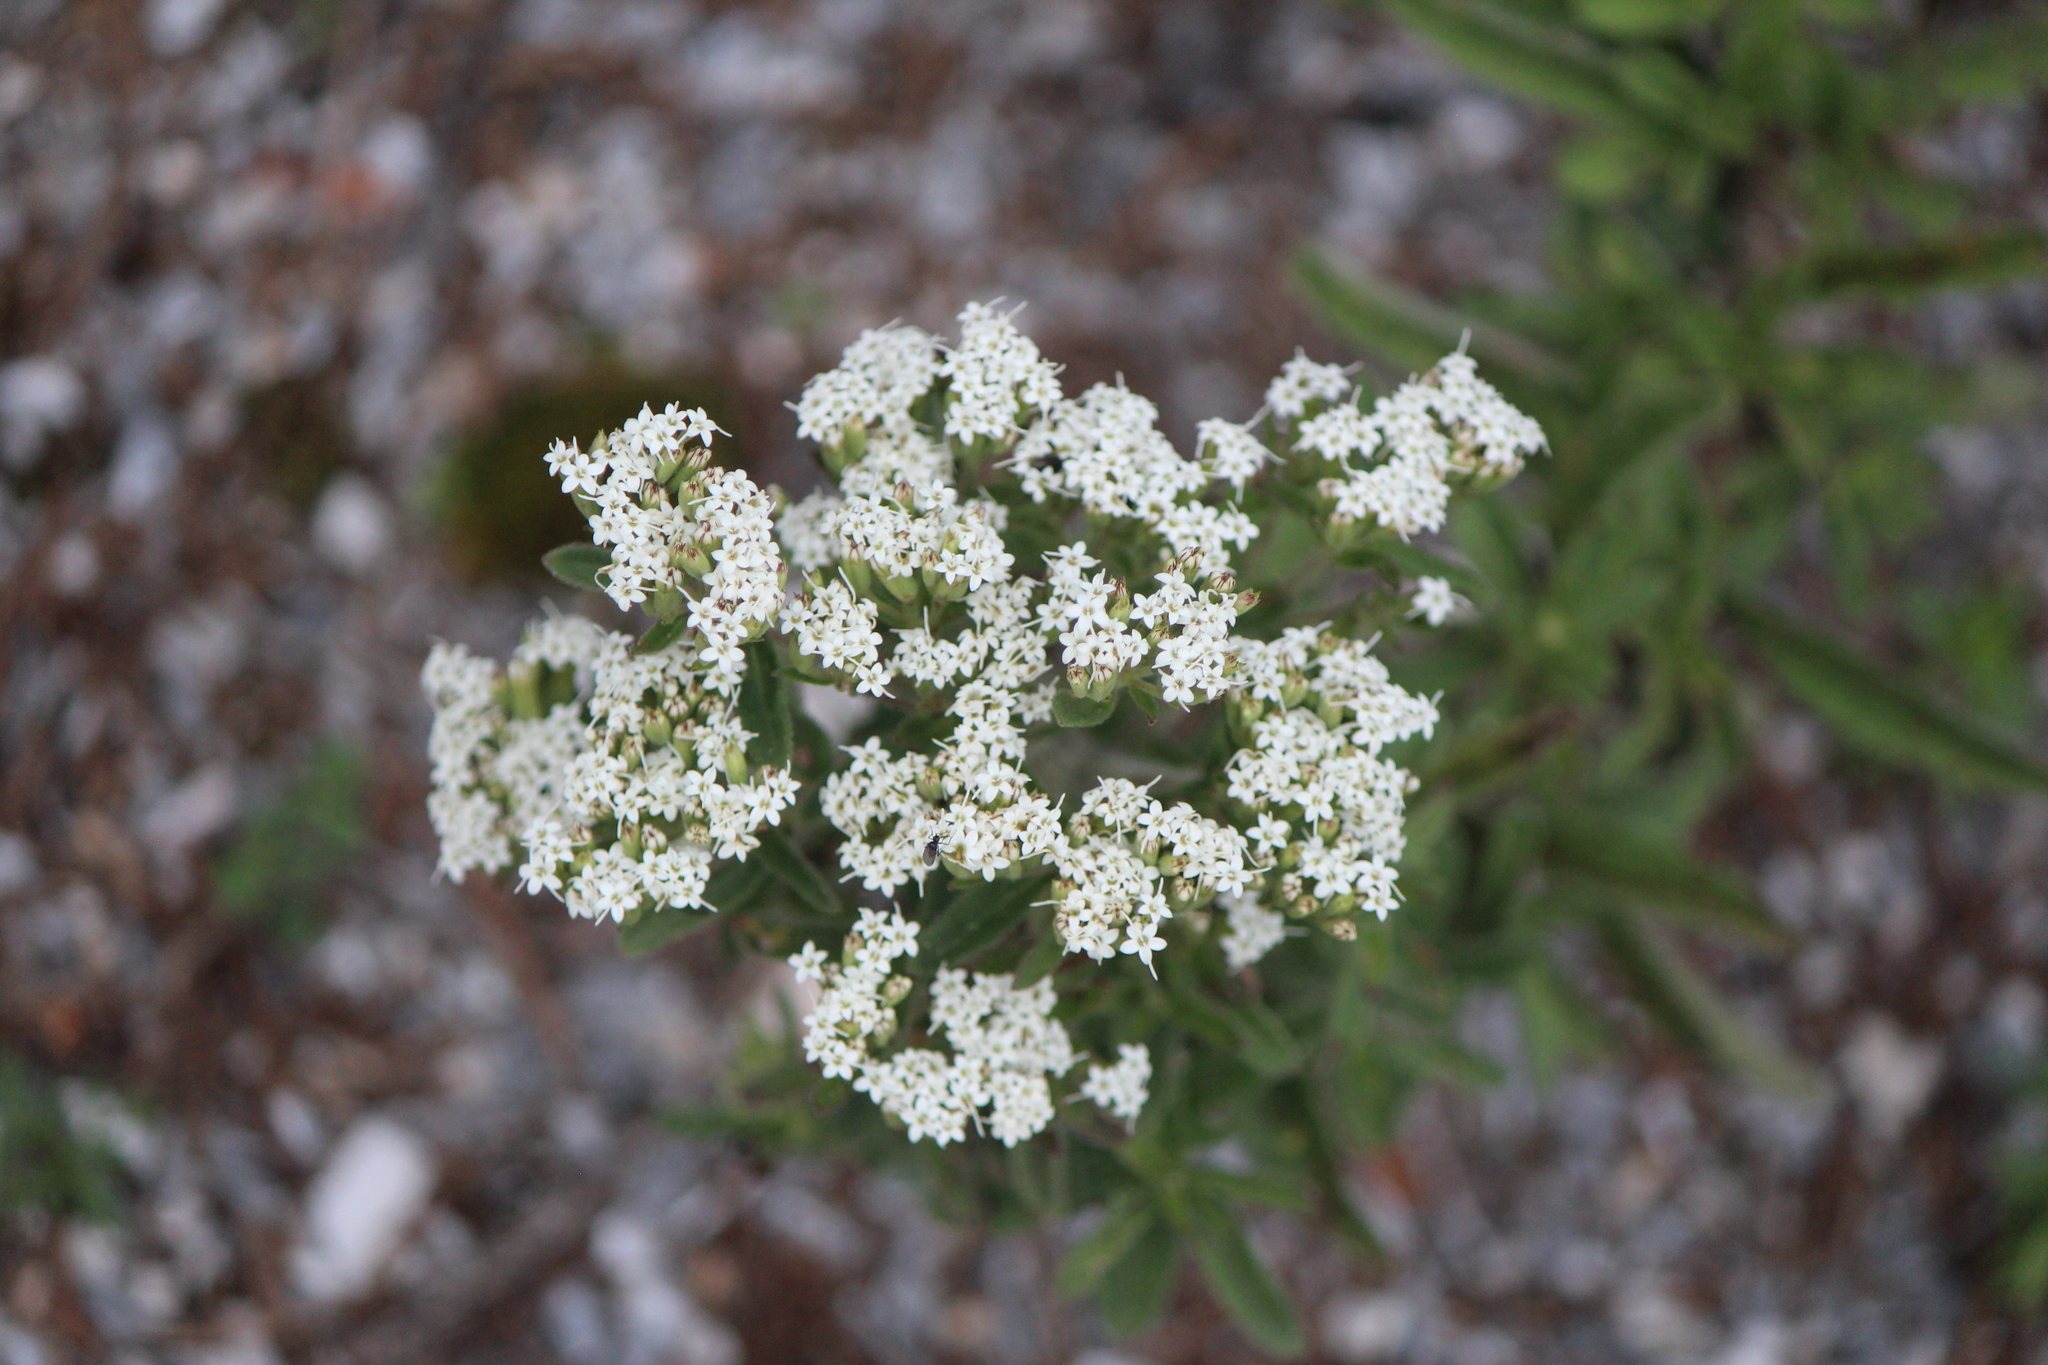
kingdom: Plantae
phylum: Tracheophyta
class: Magnoliopsida
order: Asterales
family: Asteraceae
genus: Stevia
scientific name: Stevia serrata
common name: Sawtooth candyleaf
